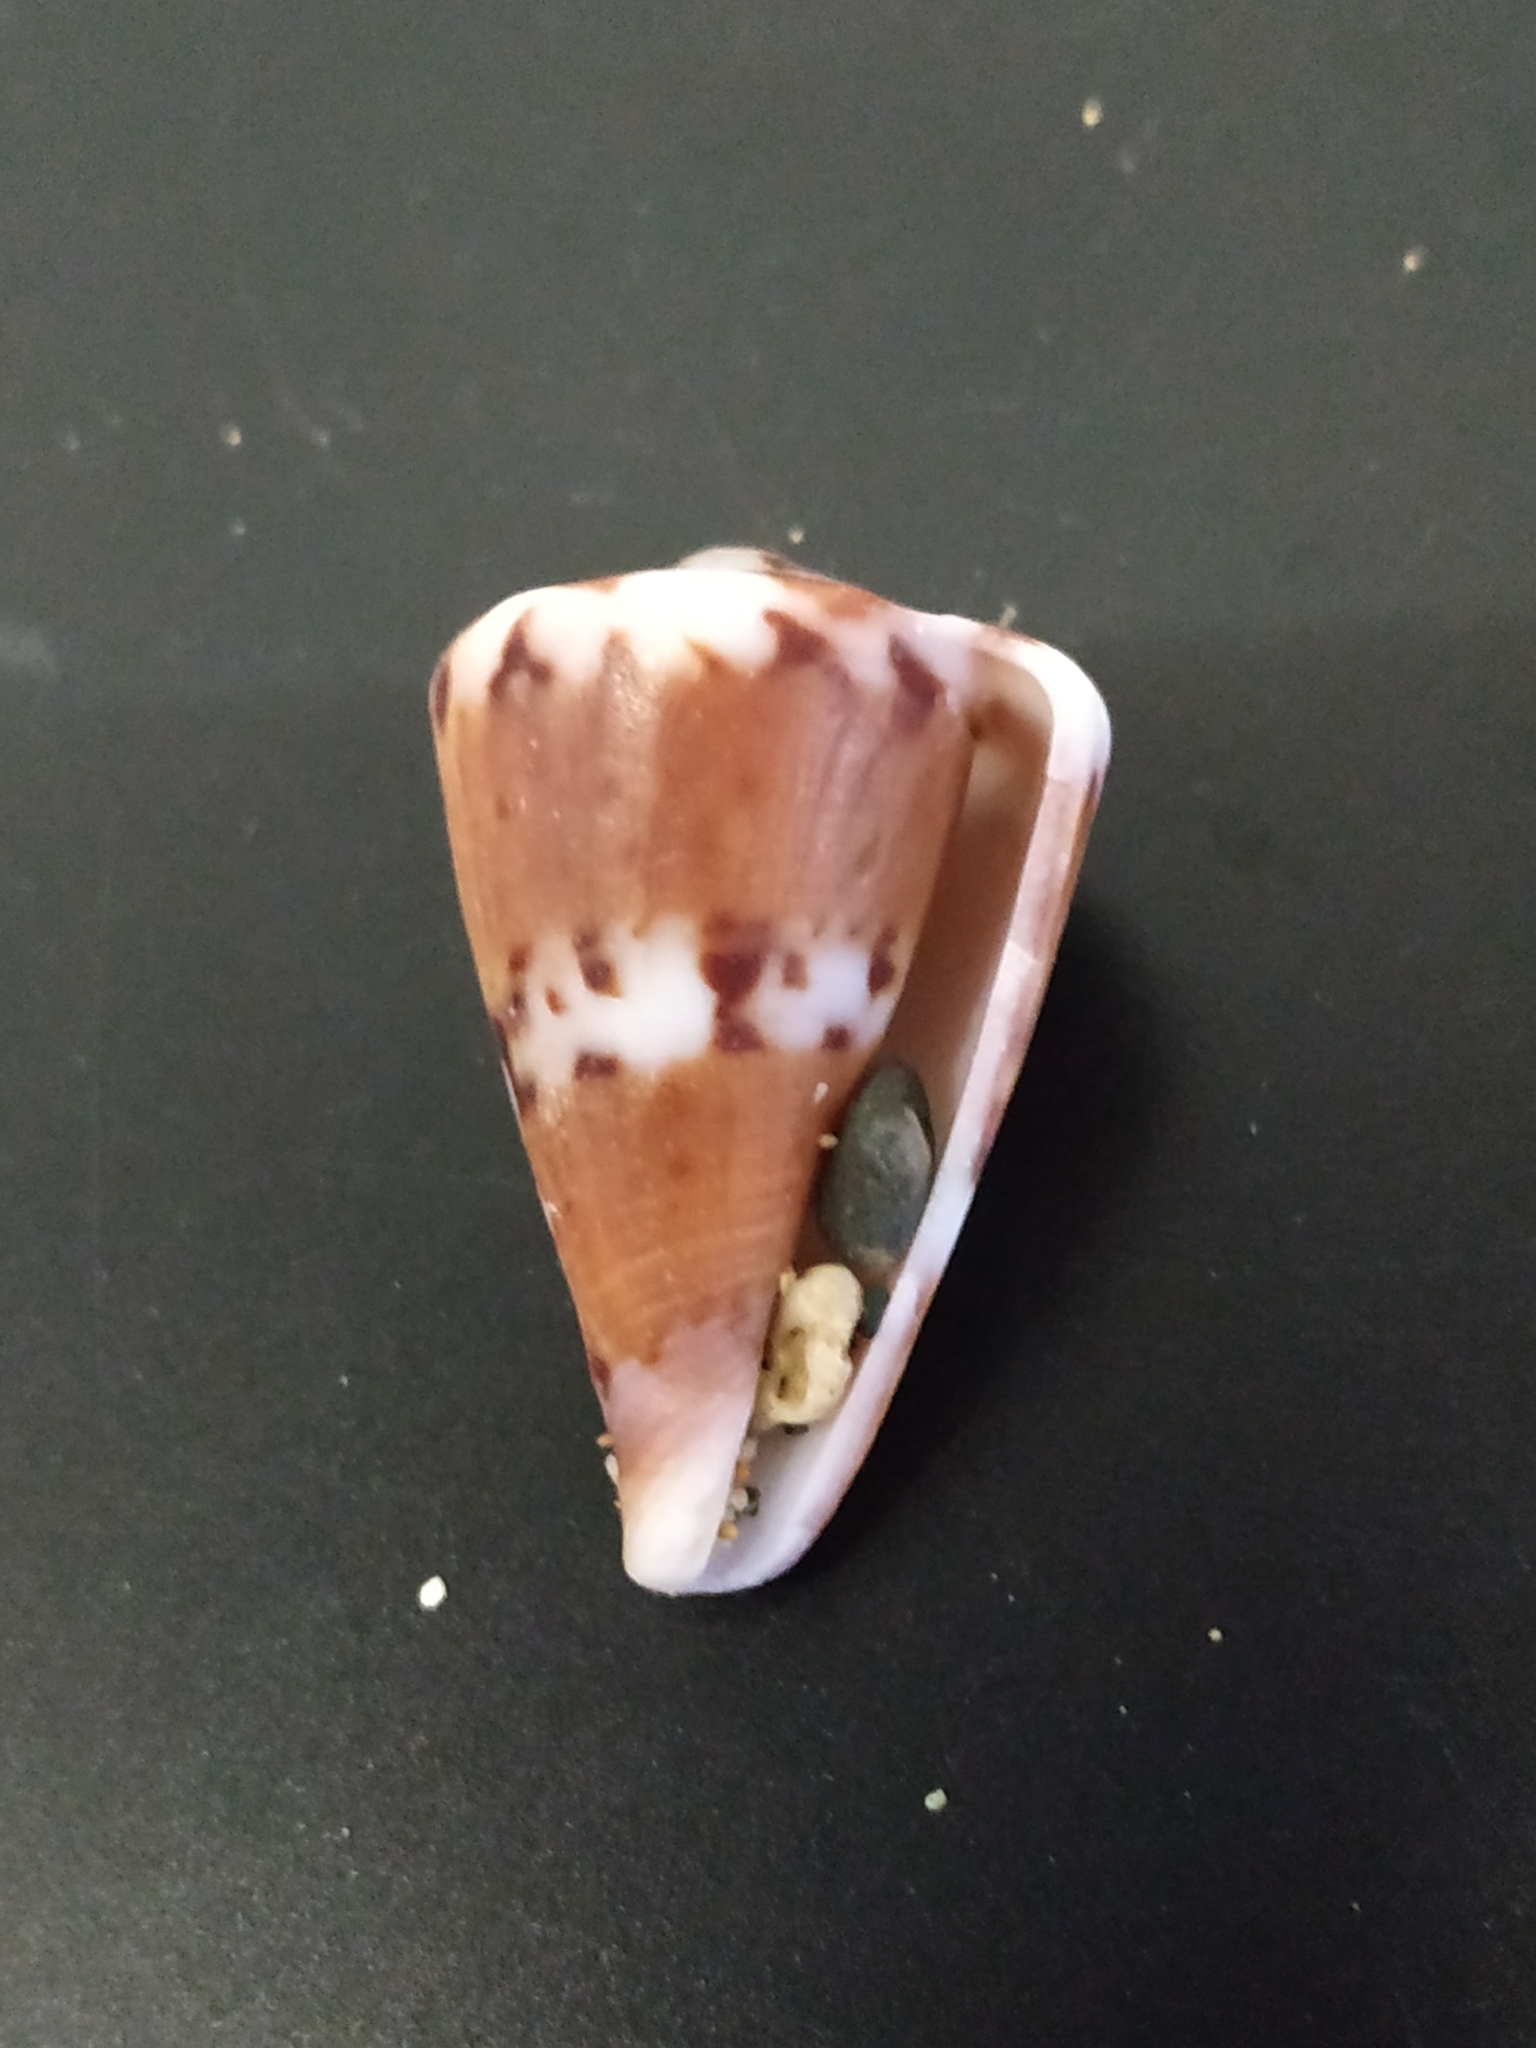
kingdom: Animalia
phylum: Mollusca
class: Gastropoda
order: Neogastropoda
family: Conidae
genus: Conus
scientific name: Conus capitaneus
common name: Captain cone
